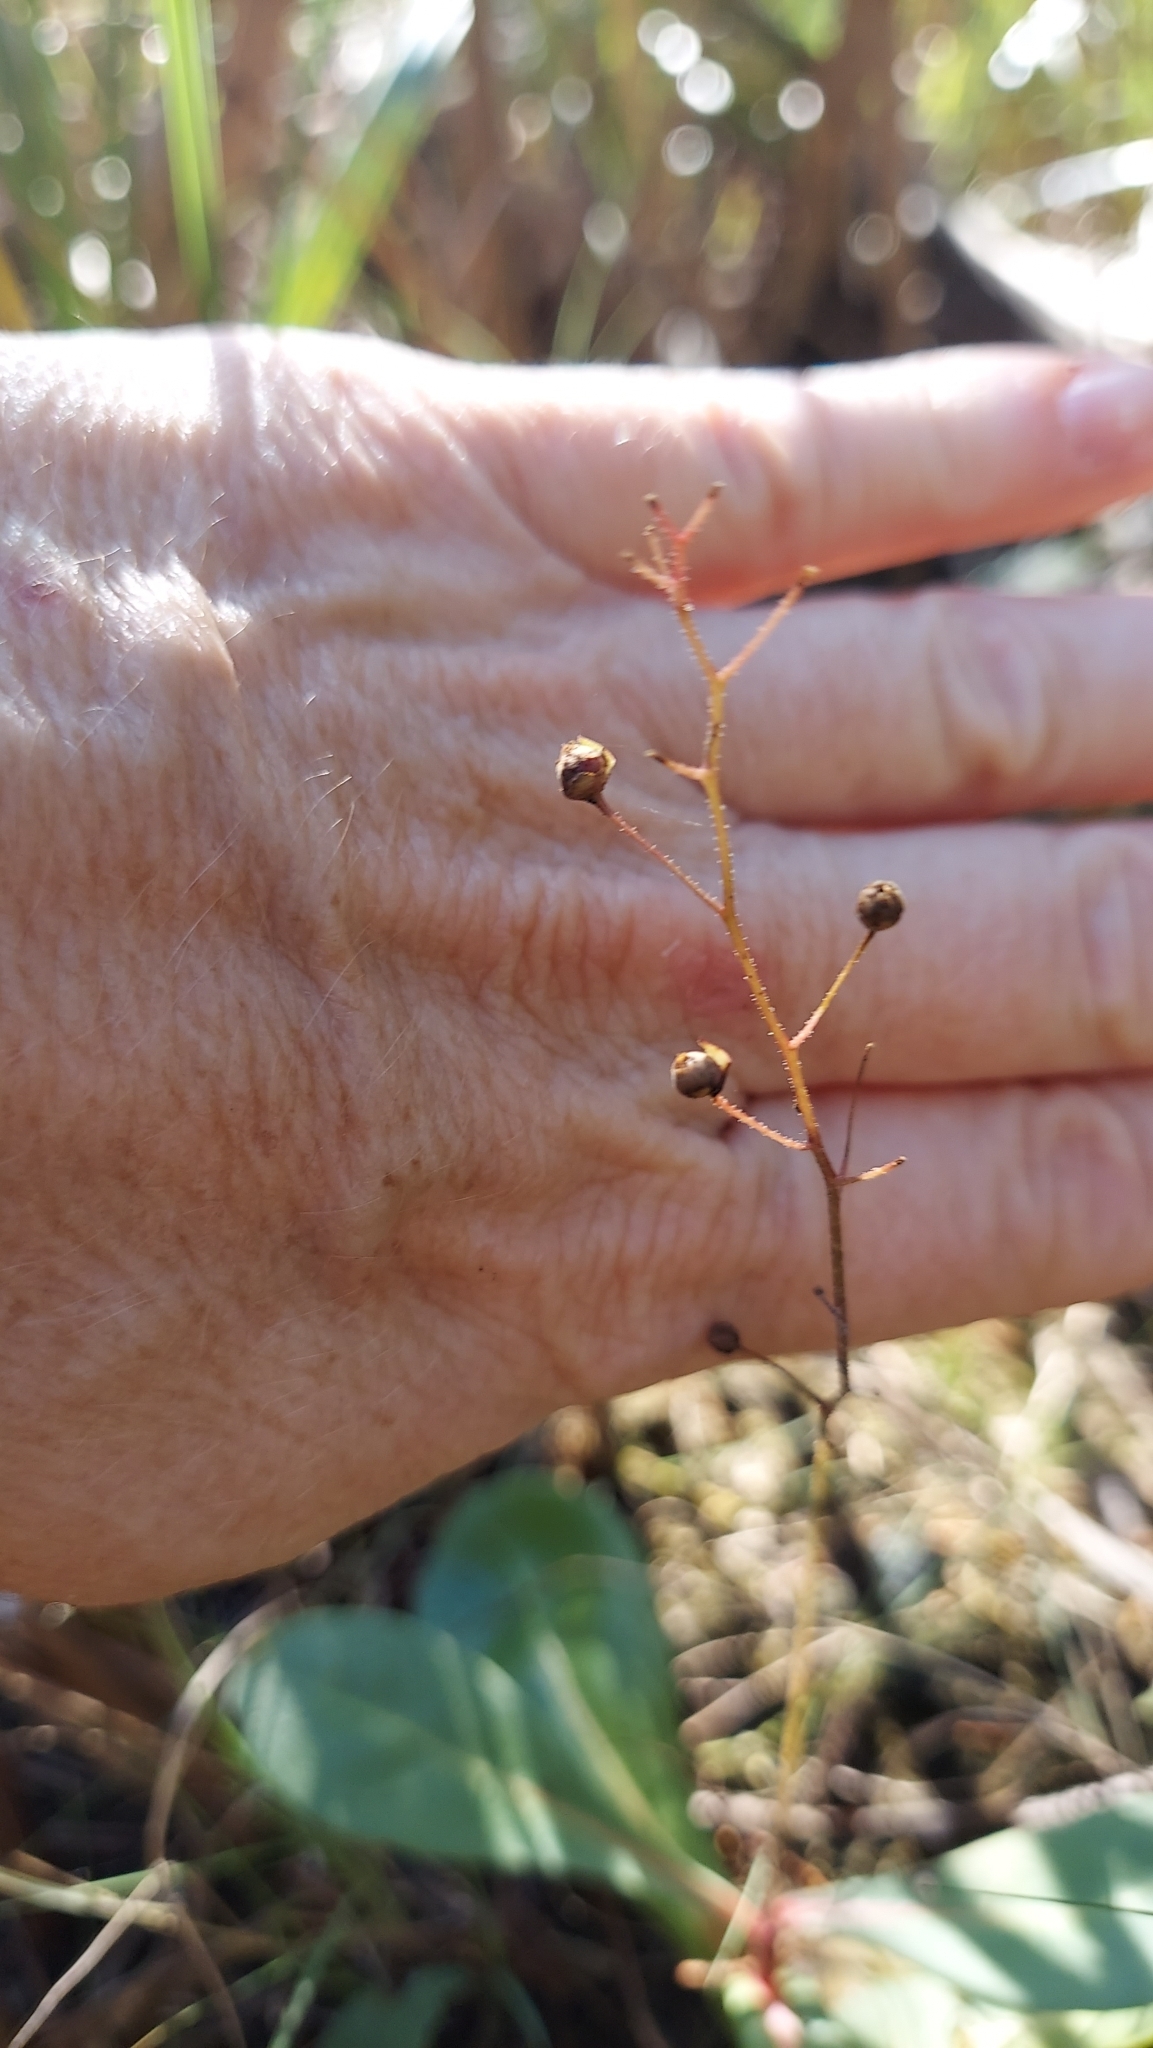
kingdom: Plantae
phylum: Tracheophyta
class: Magnoliopsida
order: Ericales
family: Primulaceae
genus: Samolus
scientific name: Samolus ebracteatus
